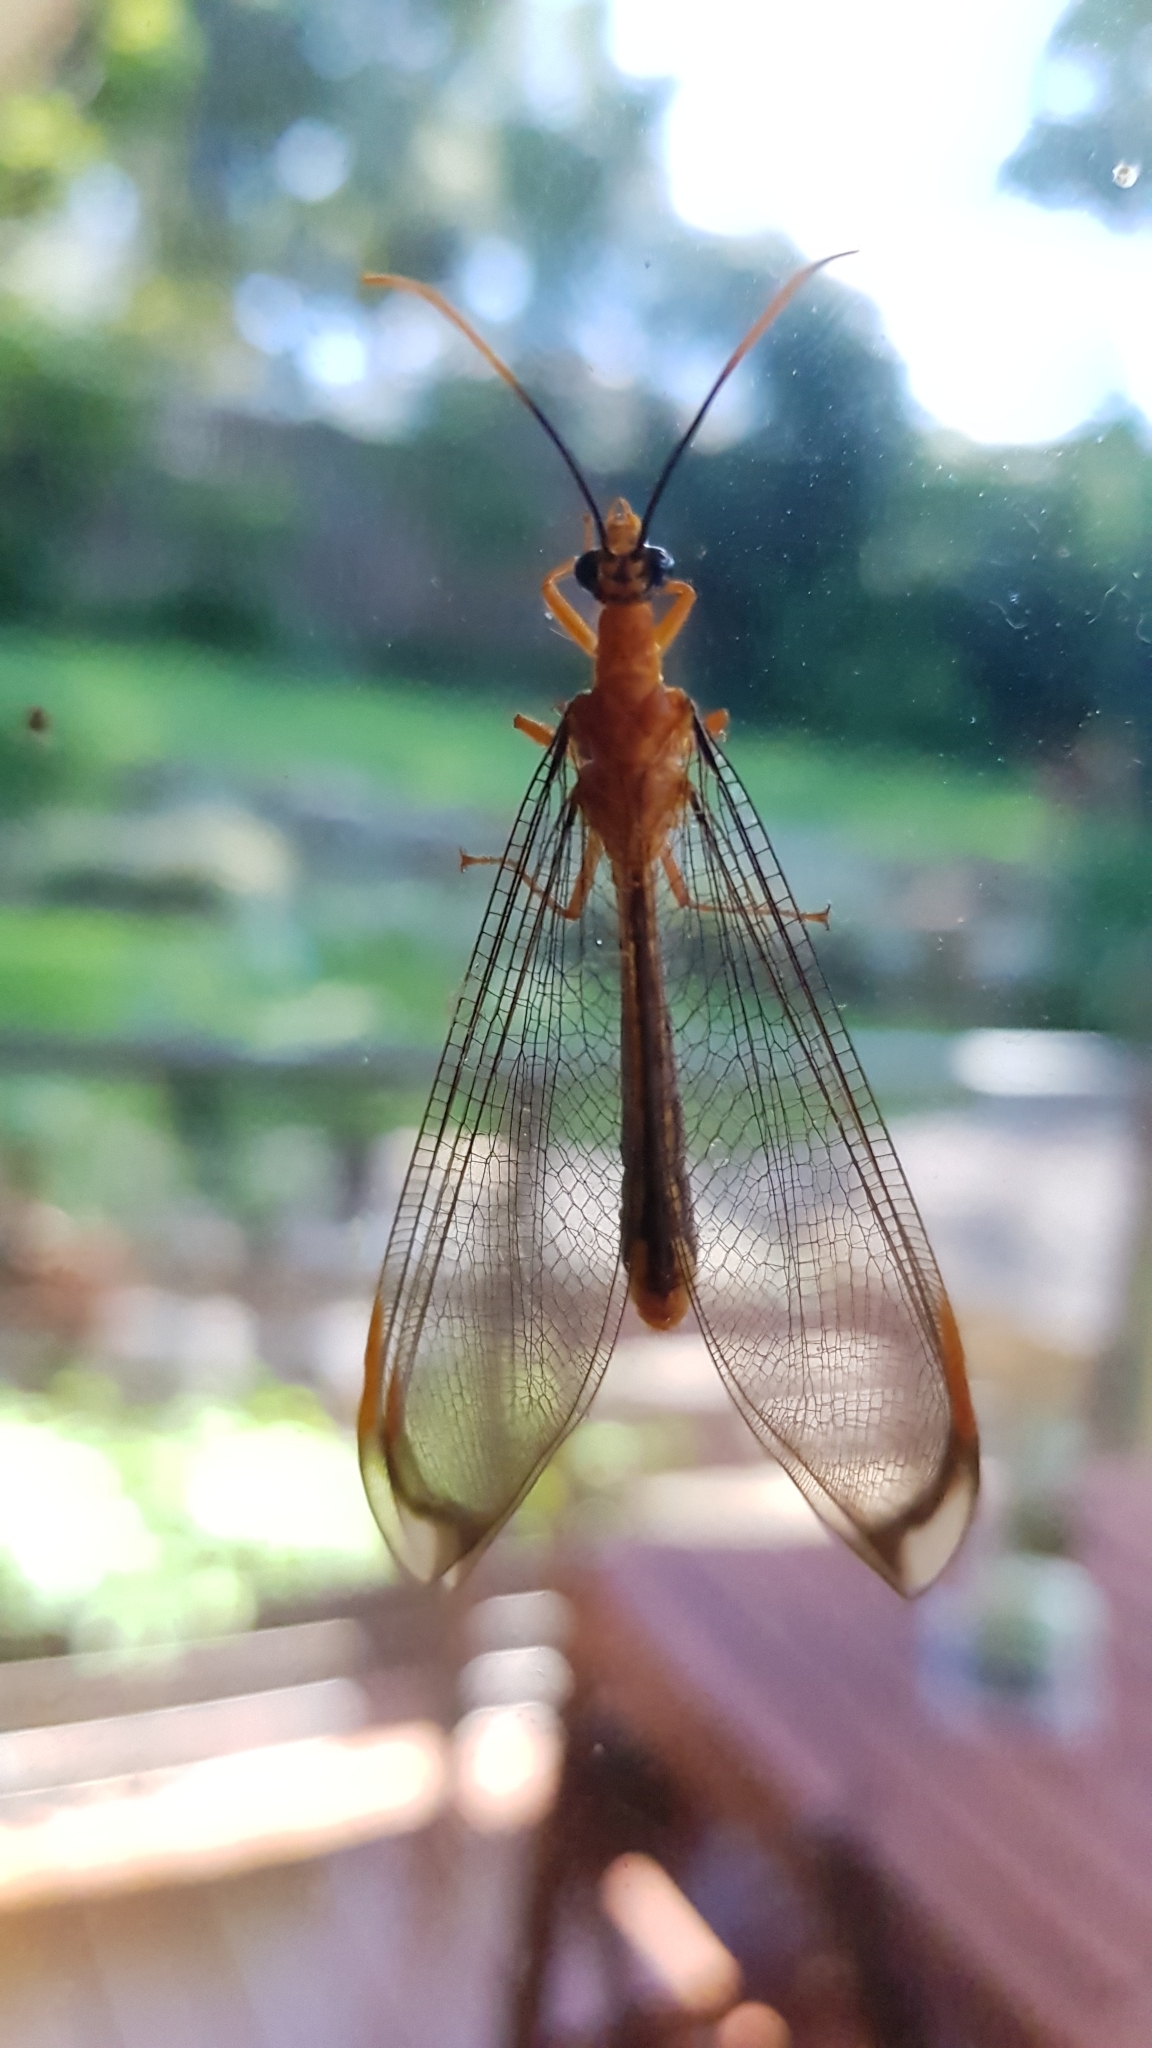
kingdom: Animalia
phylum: Arthropoda
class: Insecta
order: Neuroptera
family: Nymphidae
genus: Nymphes
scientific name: Nymphes myrmeleonoides
